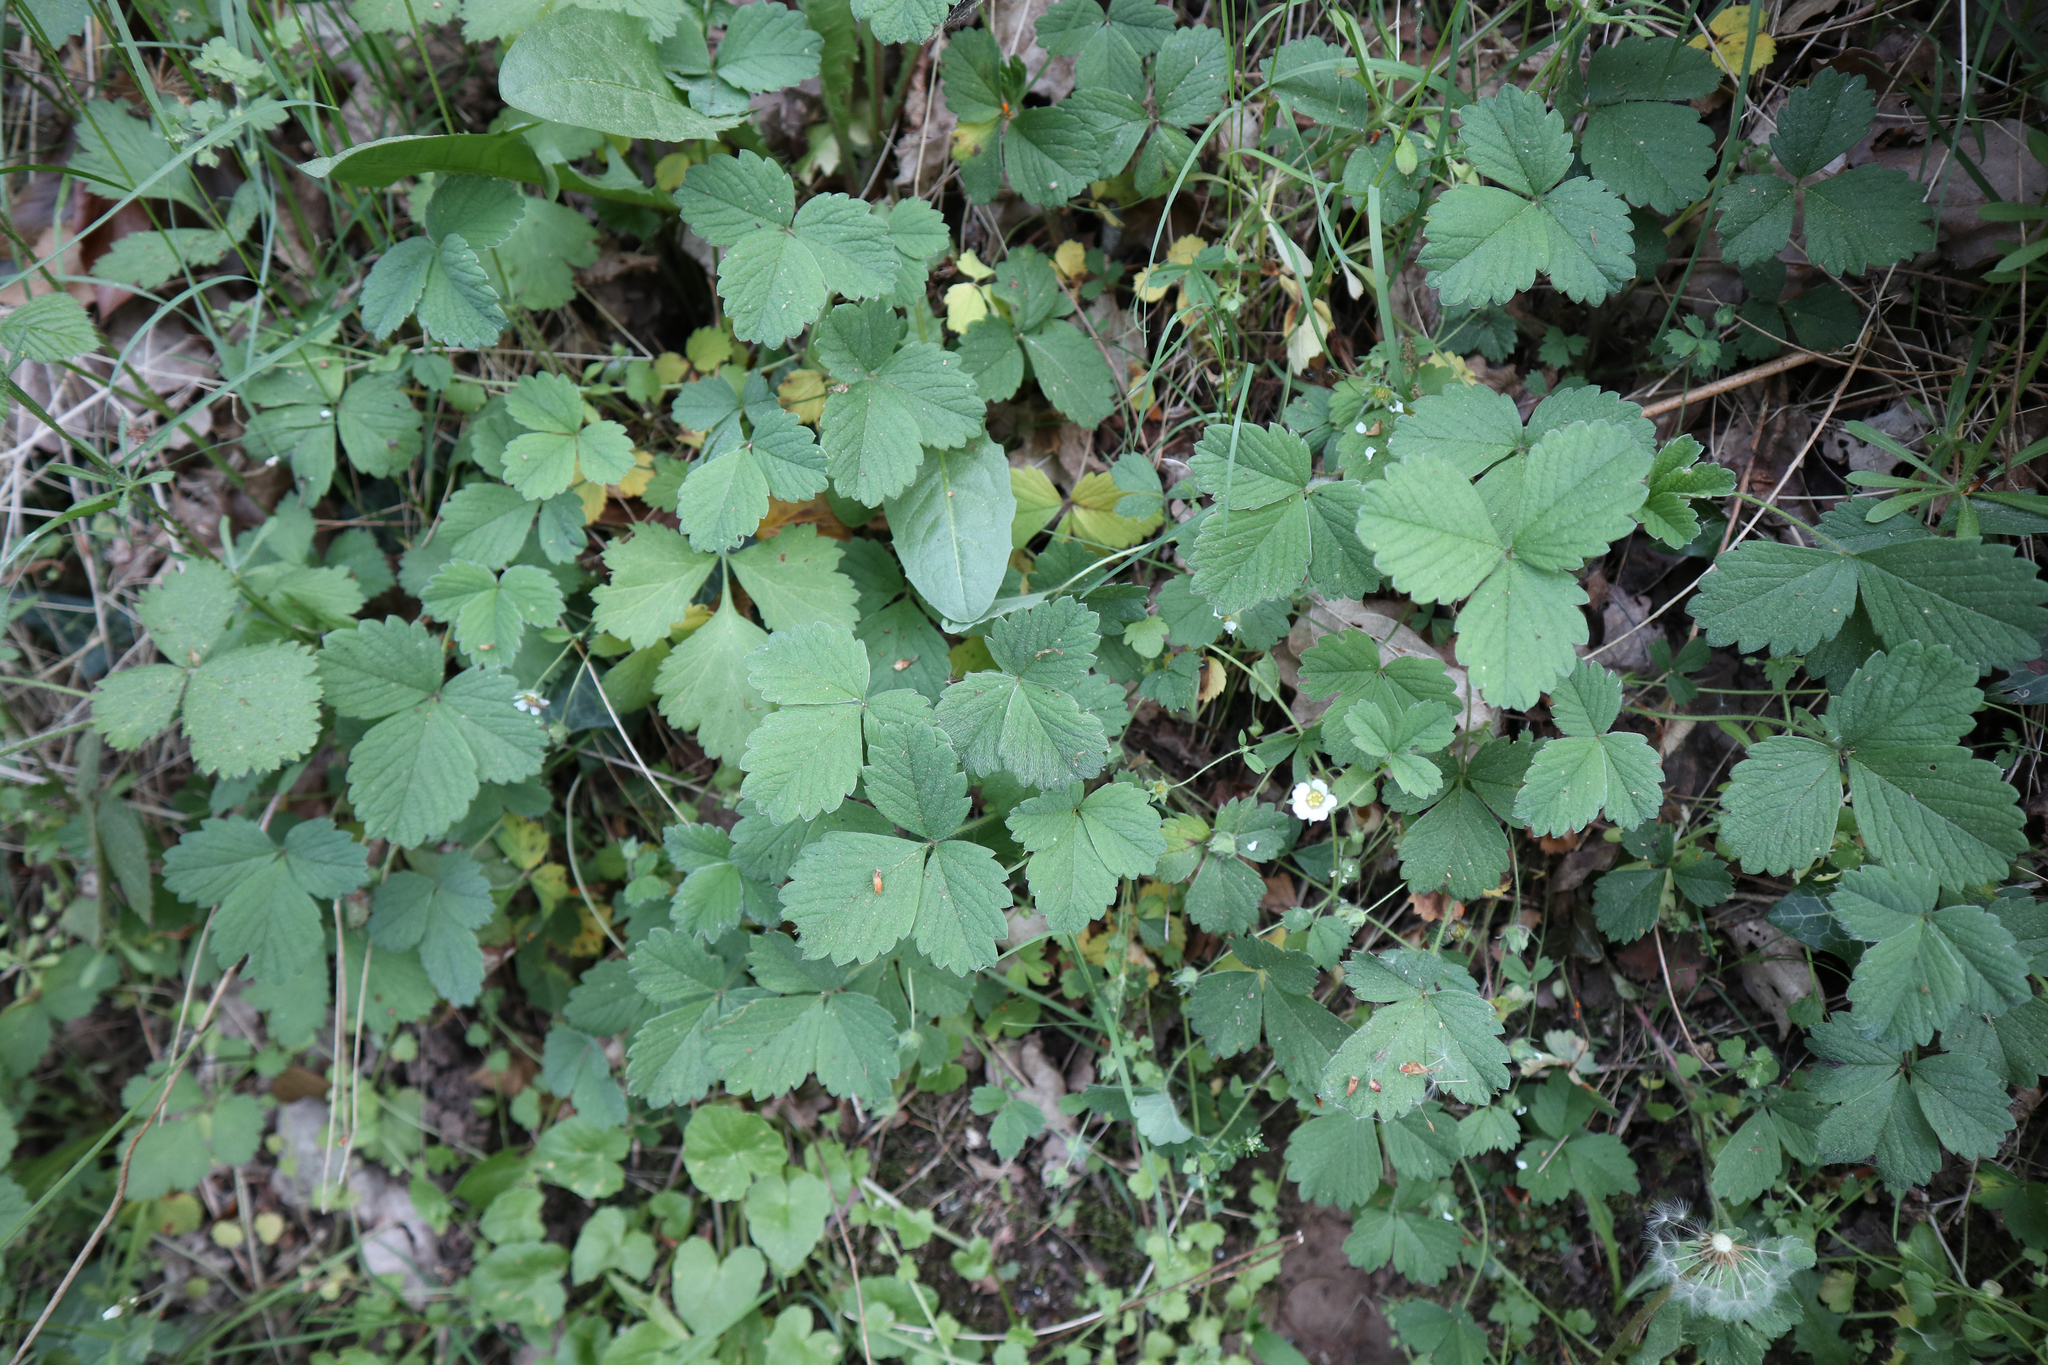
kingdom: Plantae
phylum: Tracheophyta
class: Magnoliopsida
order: Rosales
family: Rosaceae
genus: Potentilla
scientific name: Potentilla sterilis
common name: Barren strawberry
